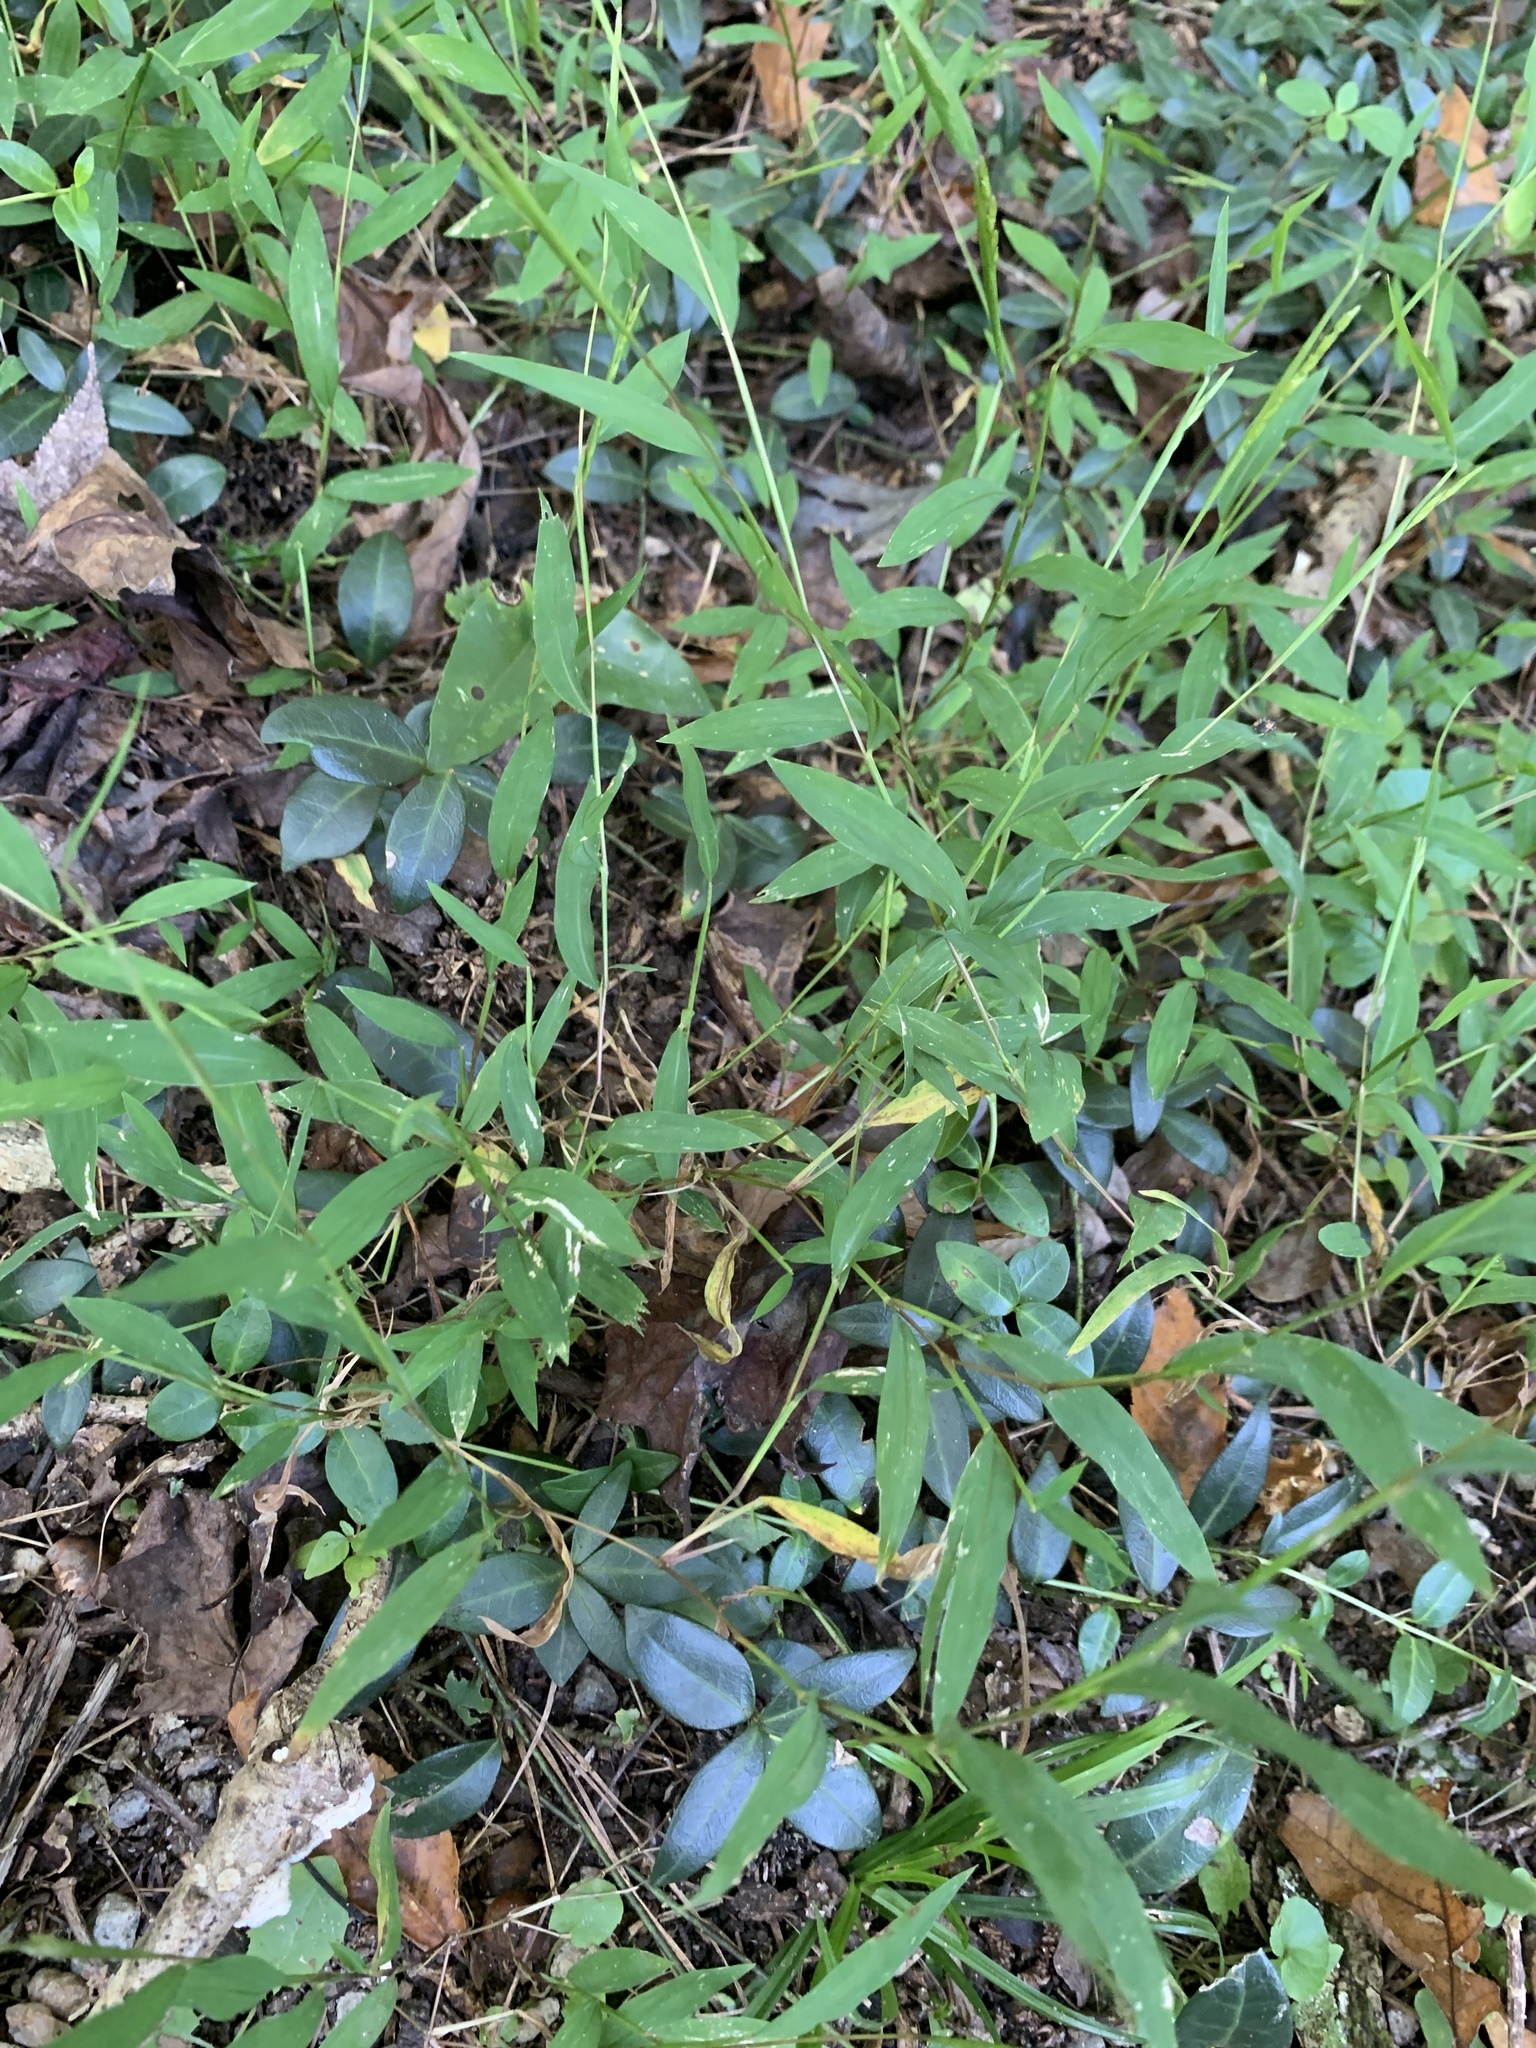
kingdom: Plantae
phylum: Tracheophyta
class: Liliopsida
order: Poales
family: Poaceae
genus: Microstegium
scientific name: Microstegium vimineum
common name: Japanese stiltgrass
